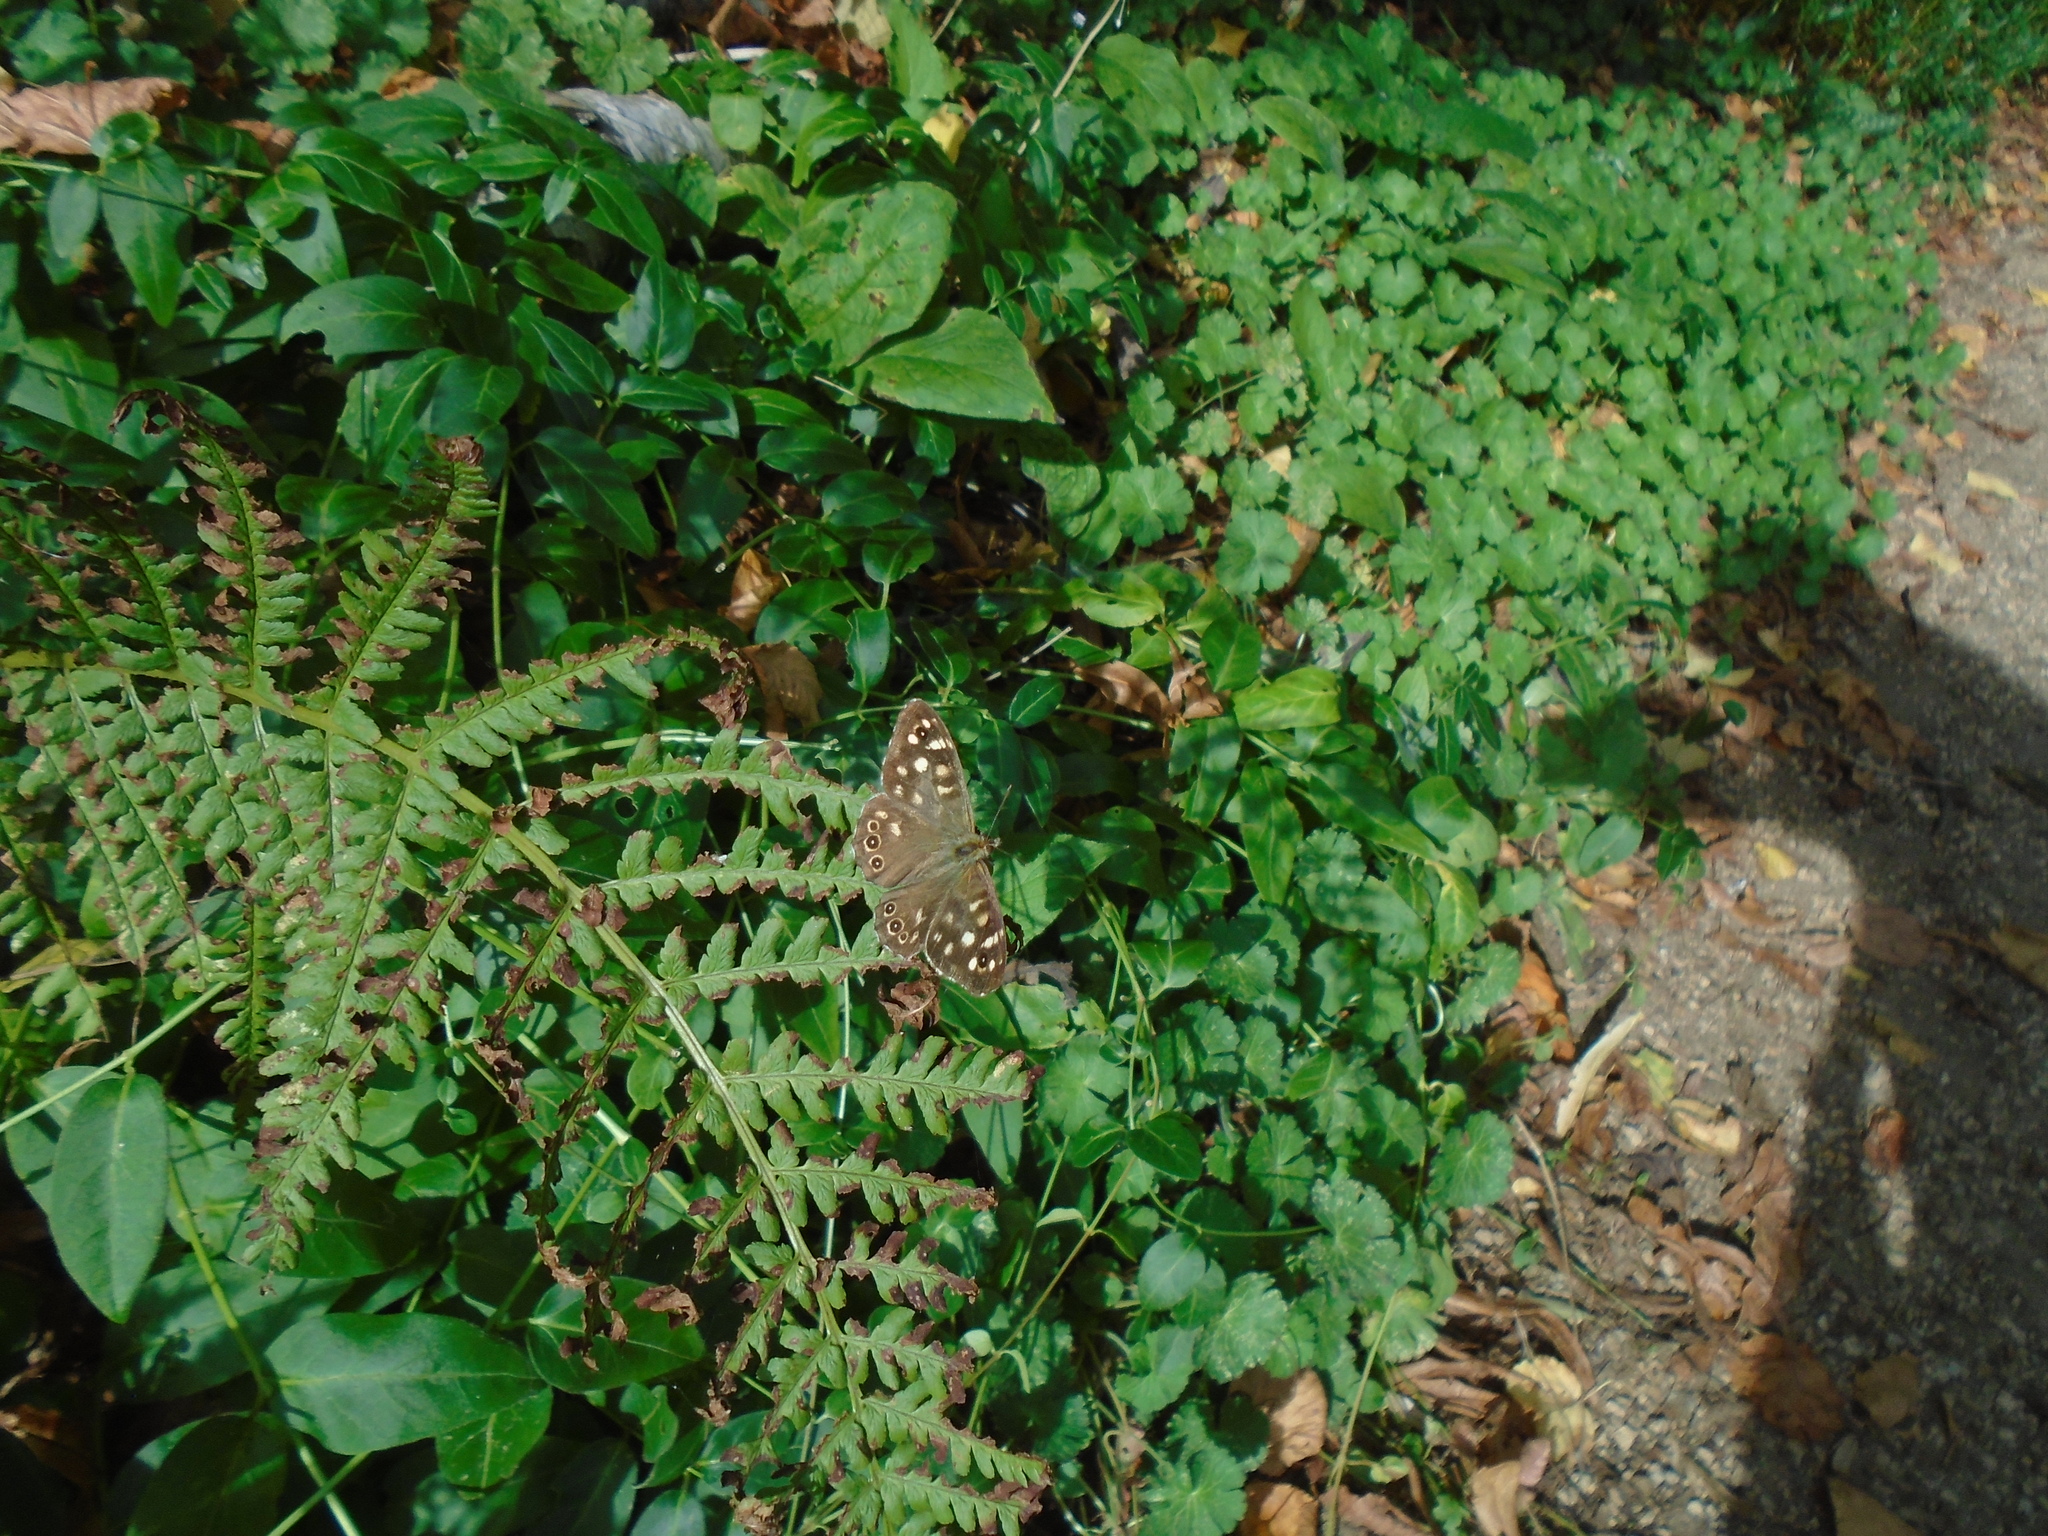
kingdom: Animalia
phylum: Arthropoda
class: Insecta
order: Lepidoptera
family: Nymphalidae
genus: Pararge
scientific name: Pararge aegeria
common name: Speckled wood
